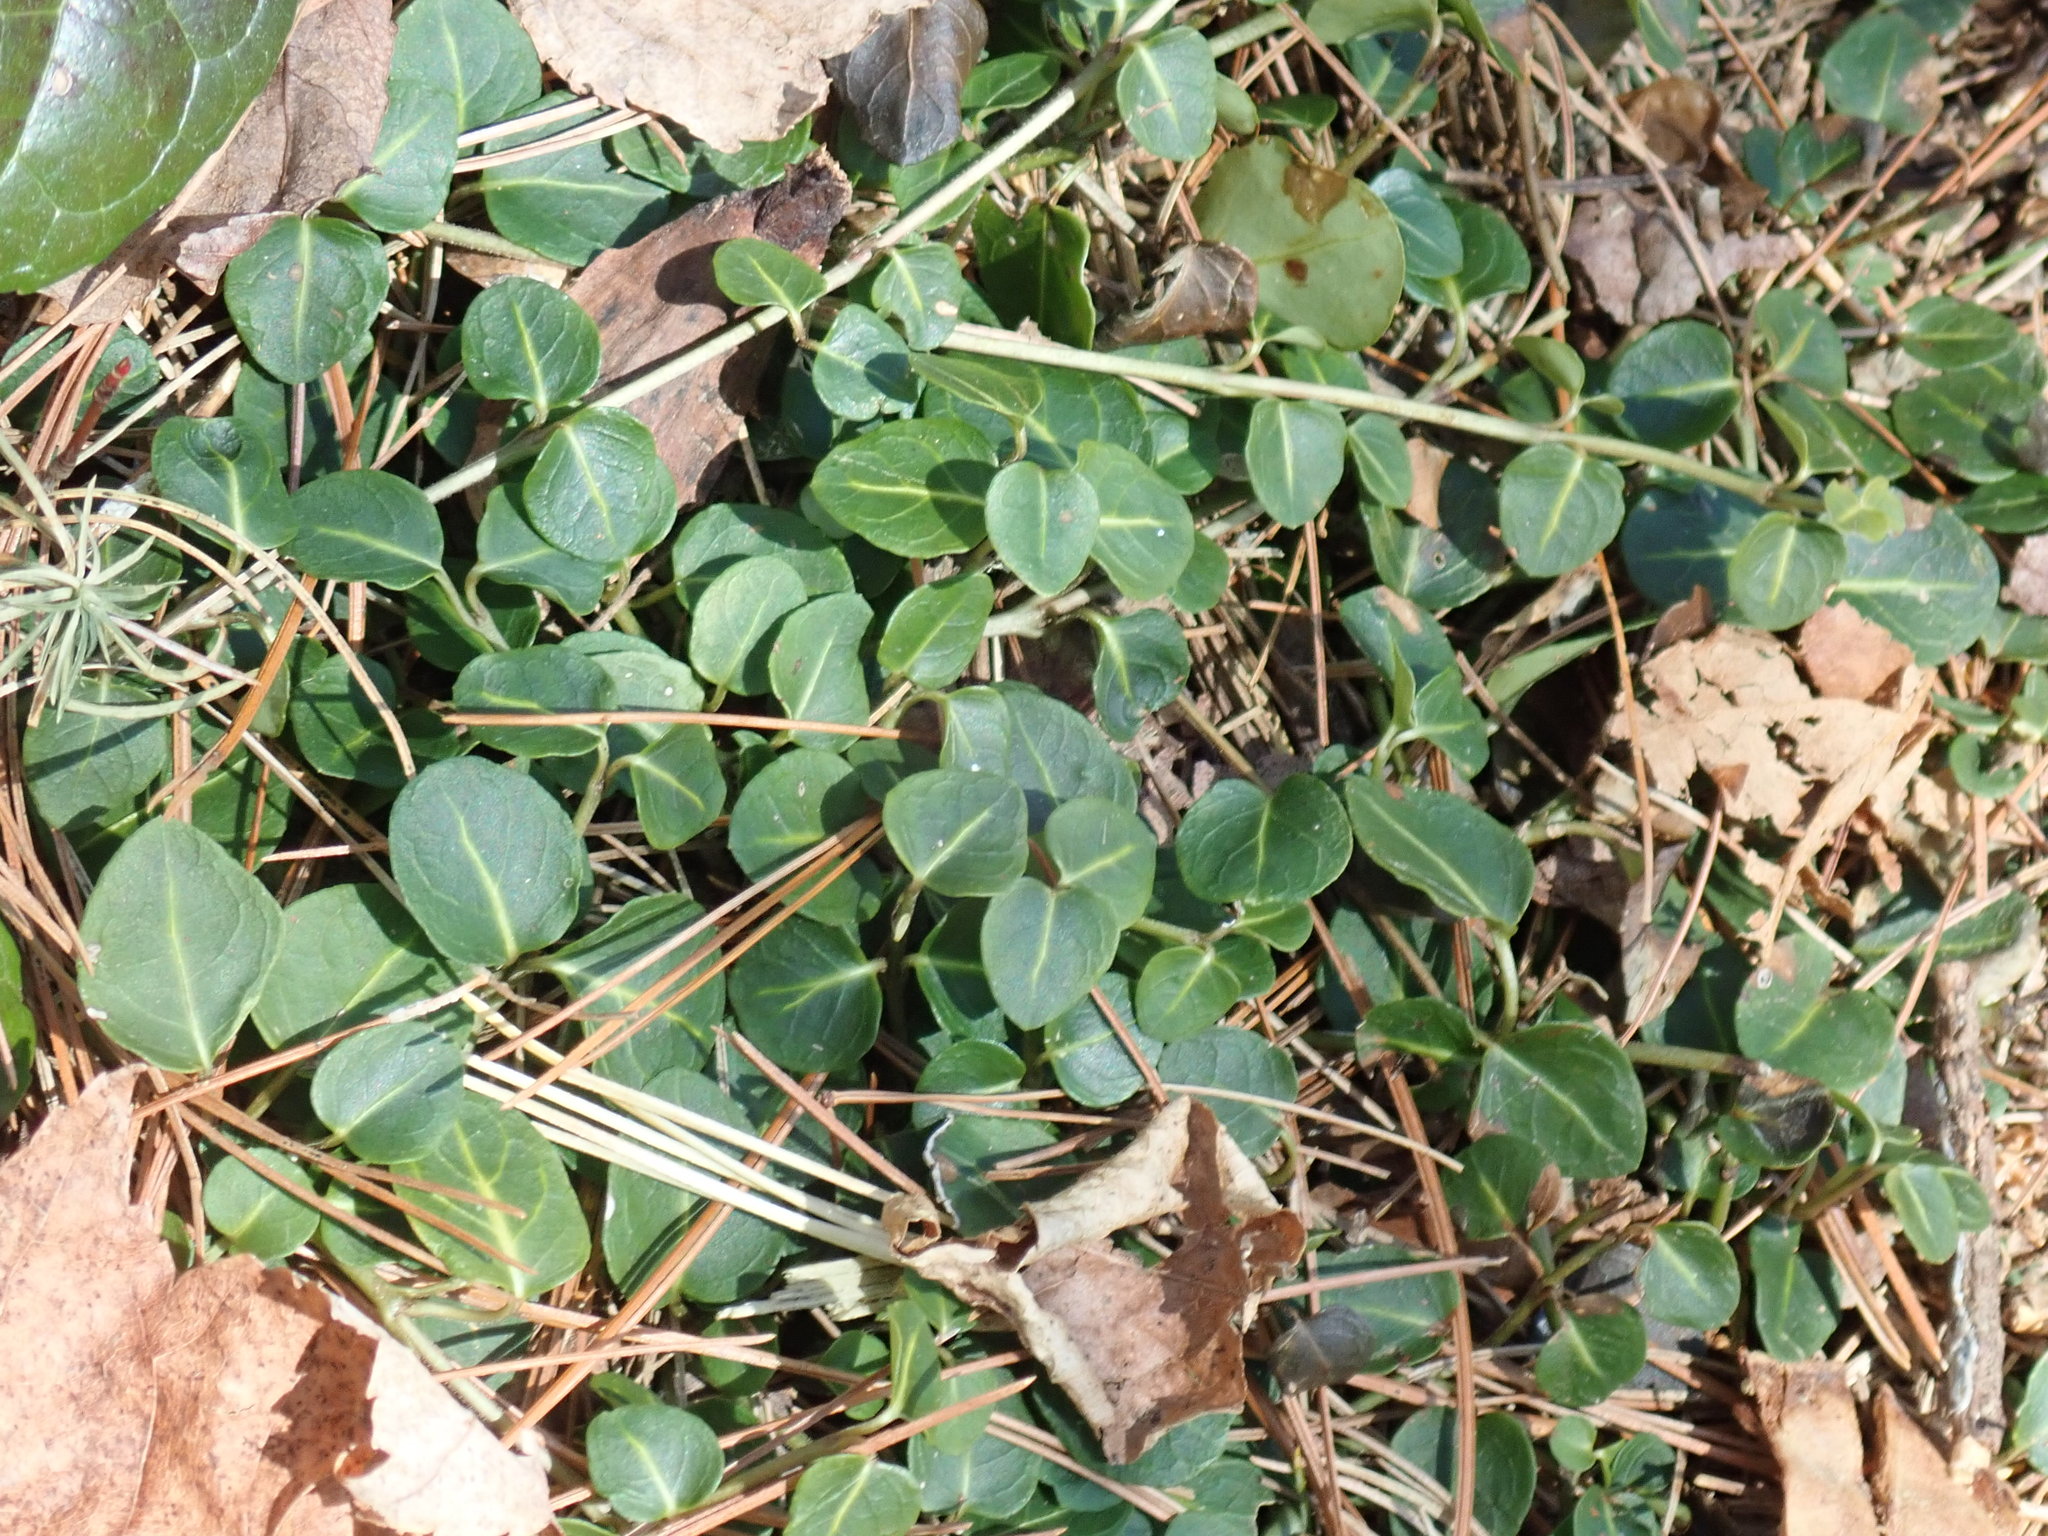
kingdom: Plantae
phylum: Tracheophyta
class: Magnoliopsida
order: Gentianales
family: Rubiaceae
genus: Mitchella
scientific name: Mitchella repens
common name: Partridge-berry
